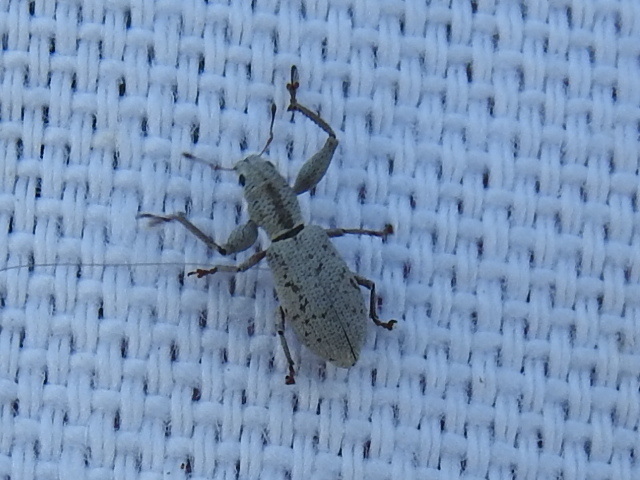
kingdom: Animalia
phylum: Arthropoda
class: Insecta
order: Coleoptera
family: Curculionidae
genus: Pandeleteius
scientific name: Pandeleteius nodifer
